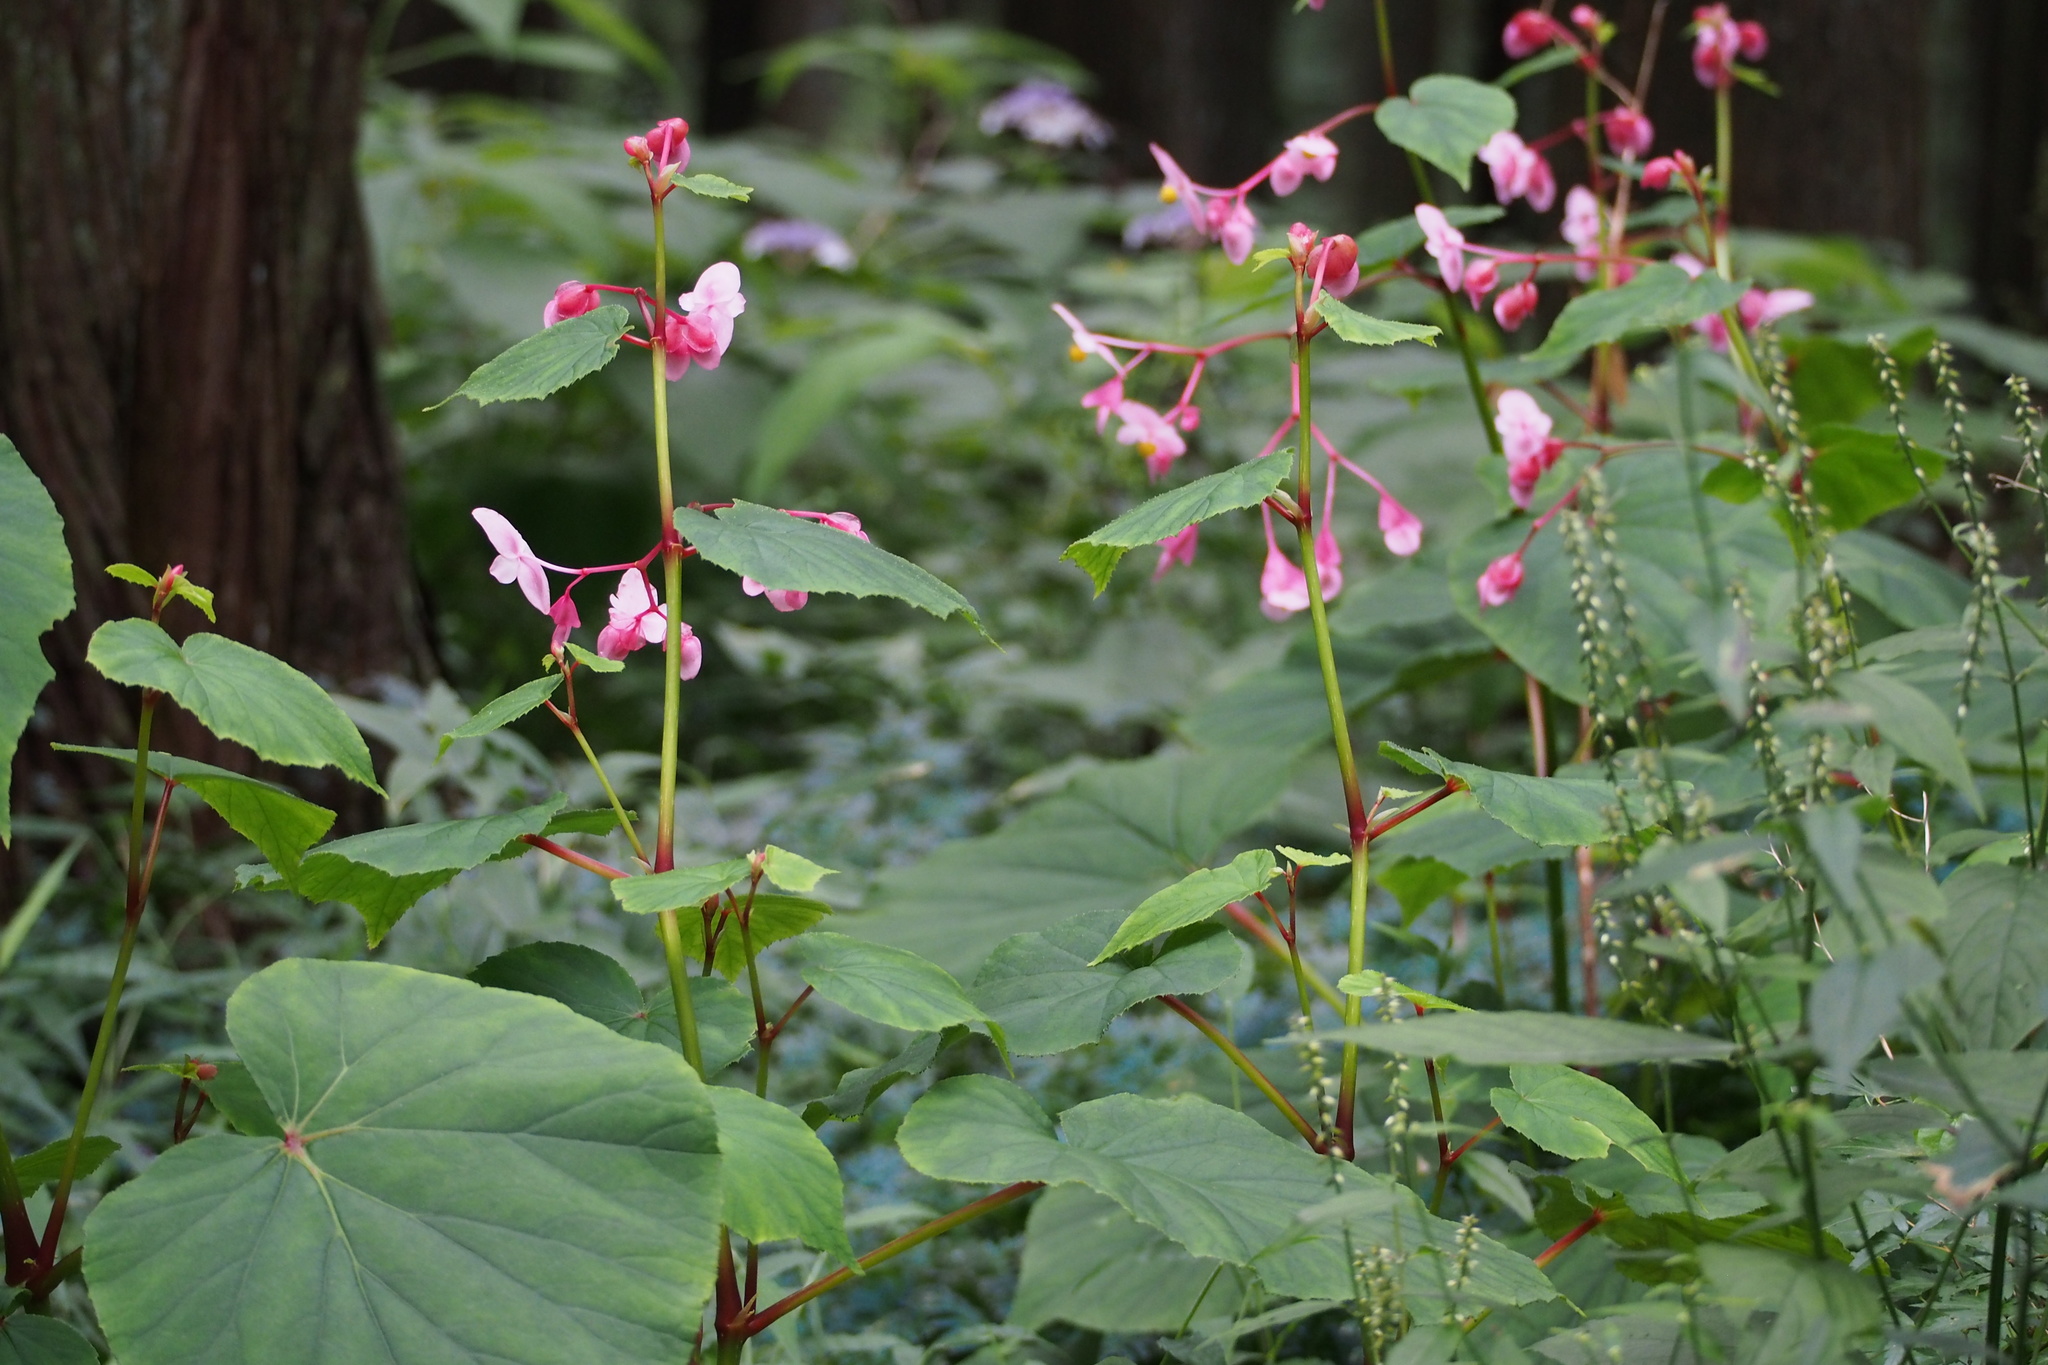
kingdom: Plantae
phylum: Tracheophyta
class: Magnoliopsida
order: Cucurbitales
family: Begoniaceae
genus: Begonia
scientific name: Begonia grandis
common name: Hardy begonia
